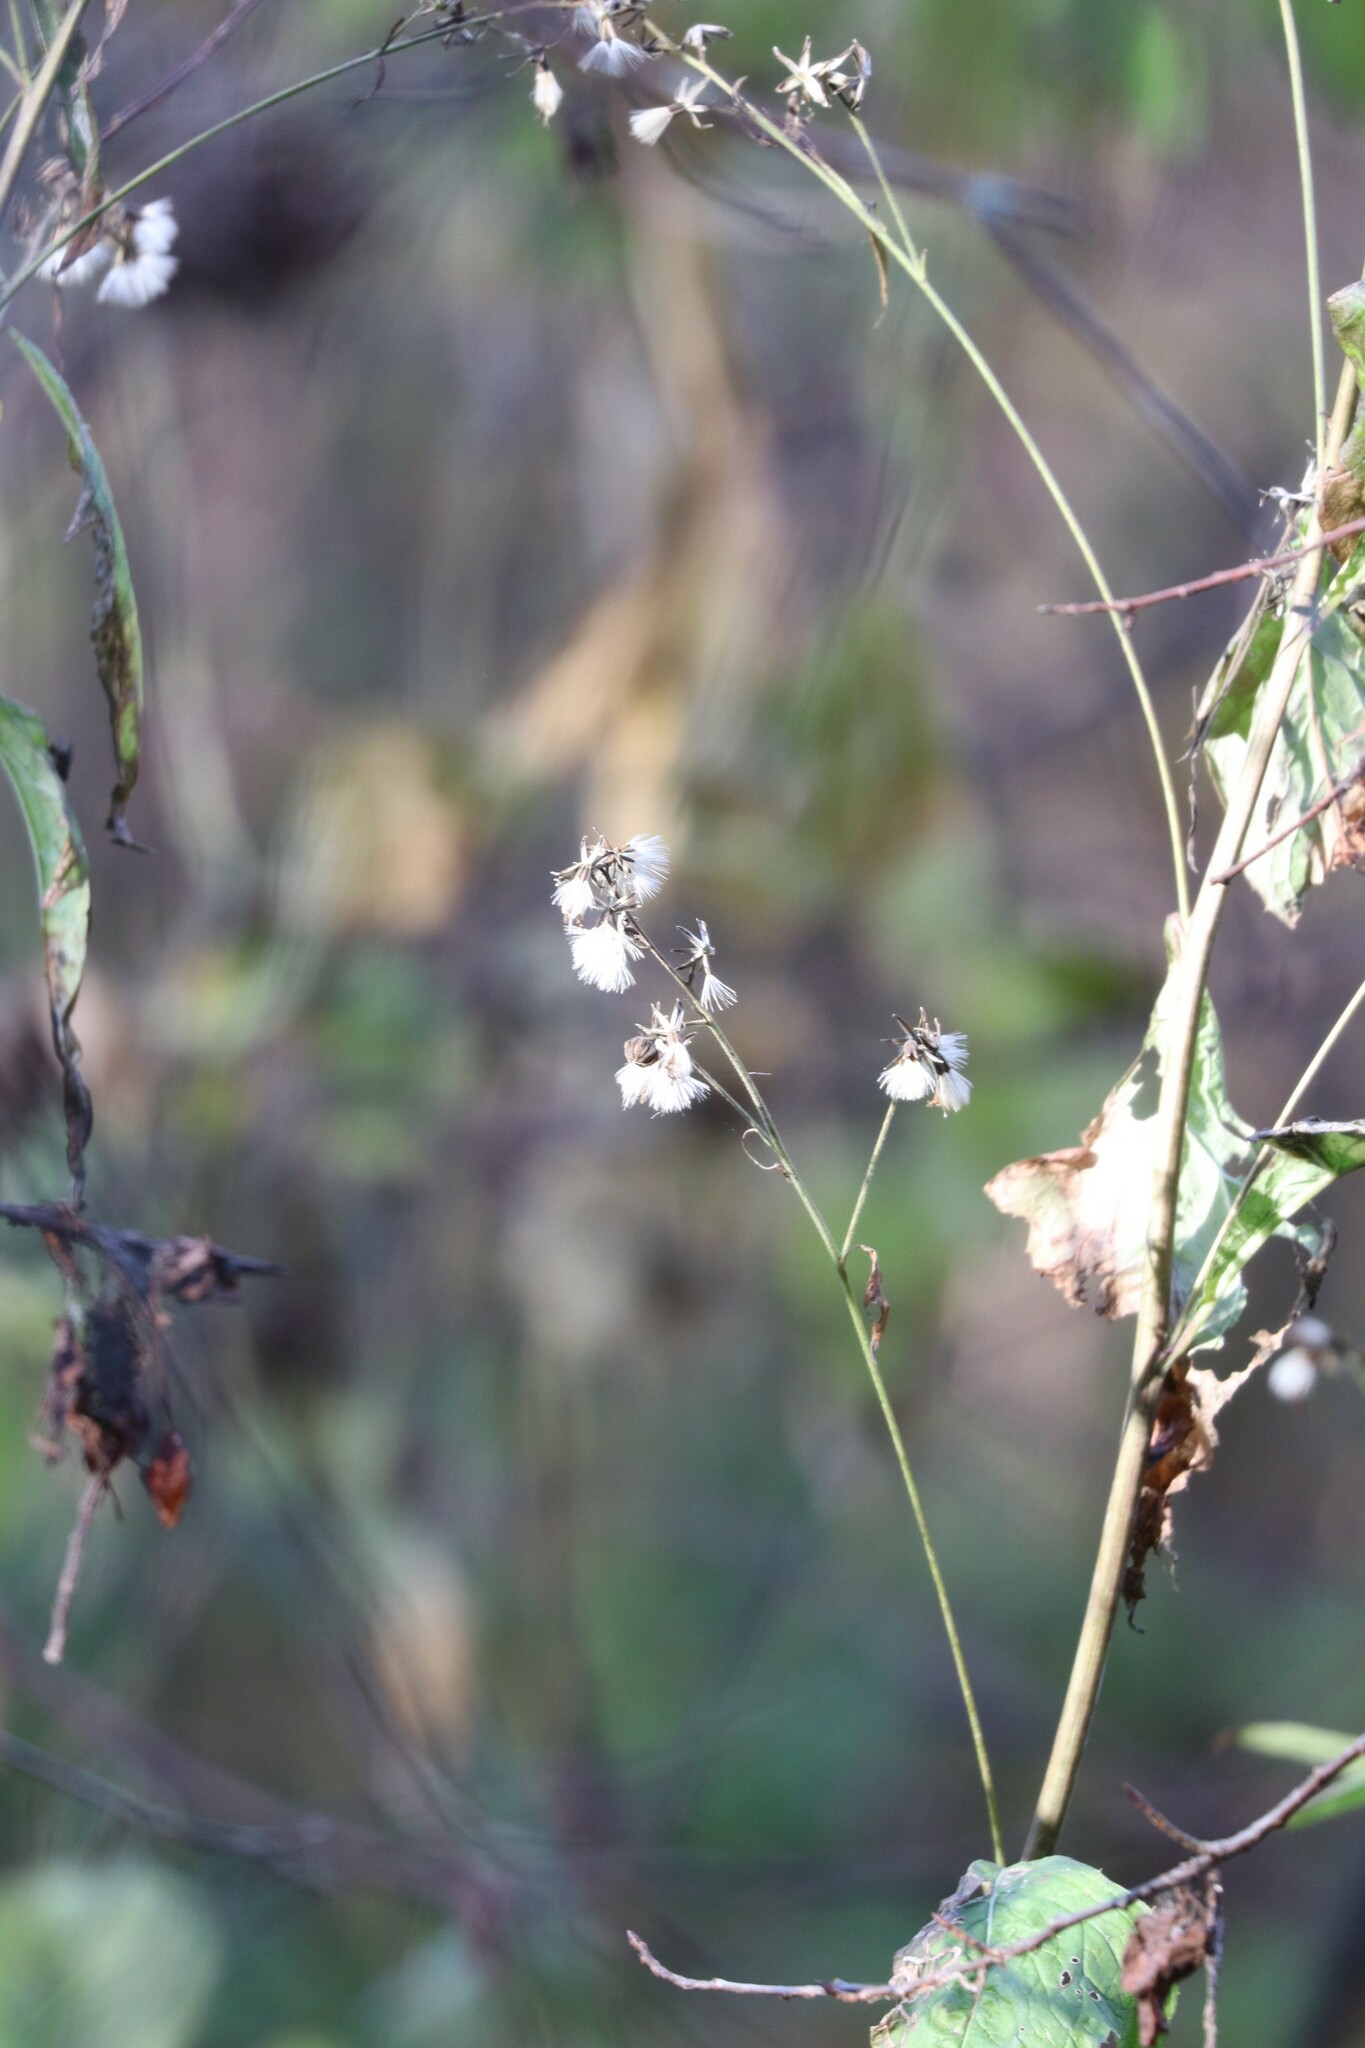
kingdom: Plantae
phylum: Tracheophyta
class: Magnoliopsida
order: Asterales
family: Asteraceae
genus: Parasenecio
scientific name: Parasenecio hastatus
